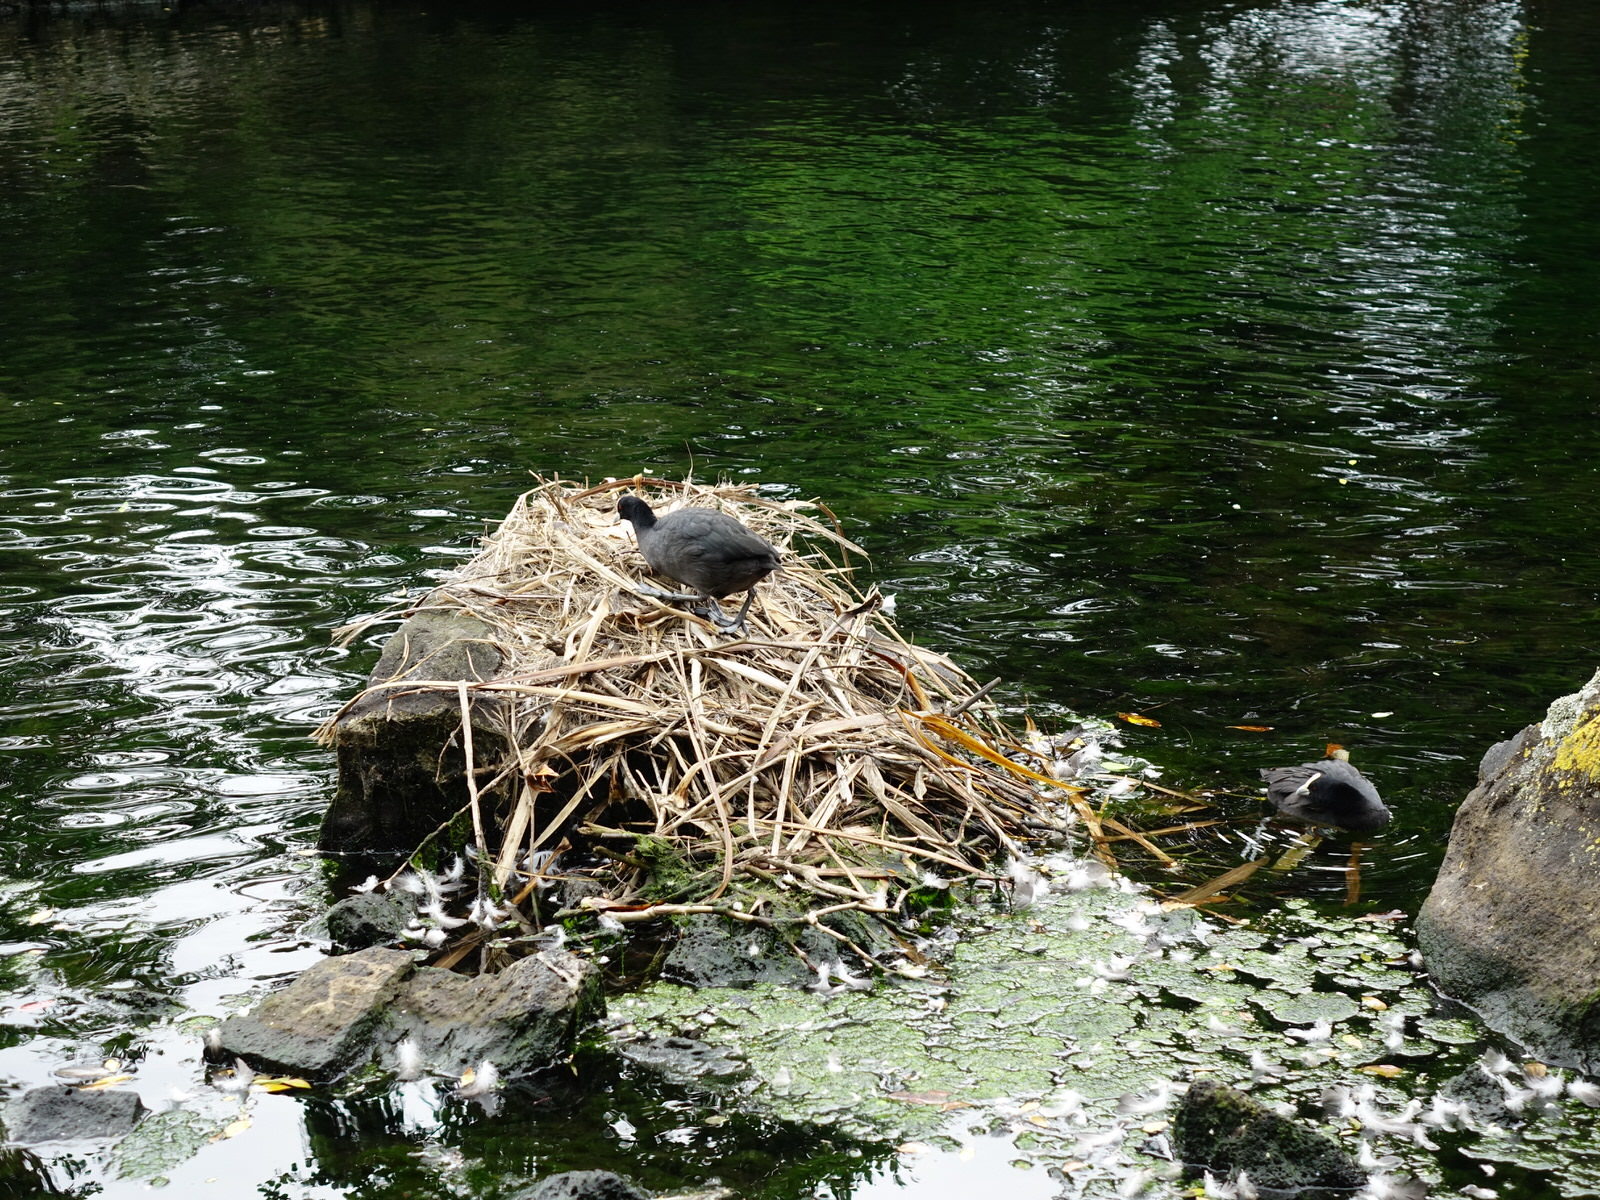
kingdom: Animalia
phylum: Chordata
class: Aves
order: Gruiformes
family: Rallidae
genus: Fulica
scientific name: Fulica atra
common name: Eurasian coot
